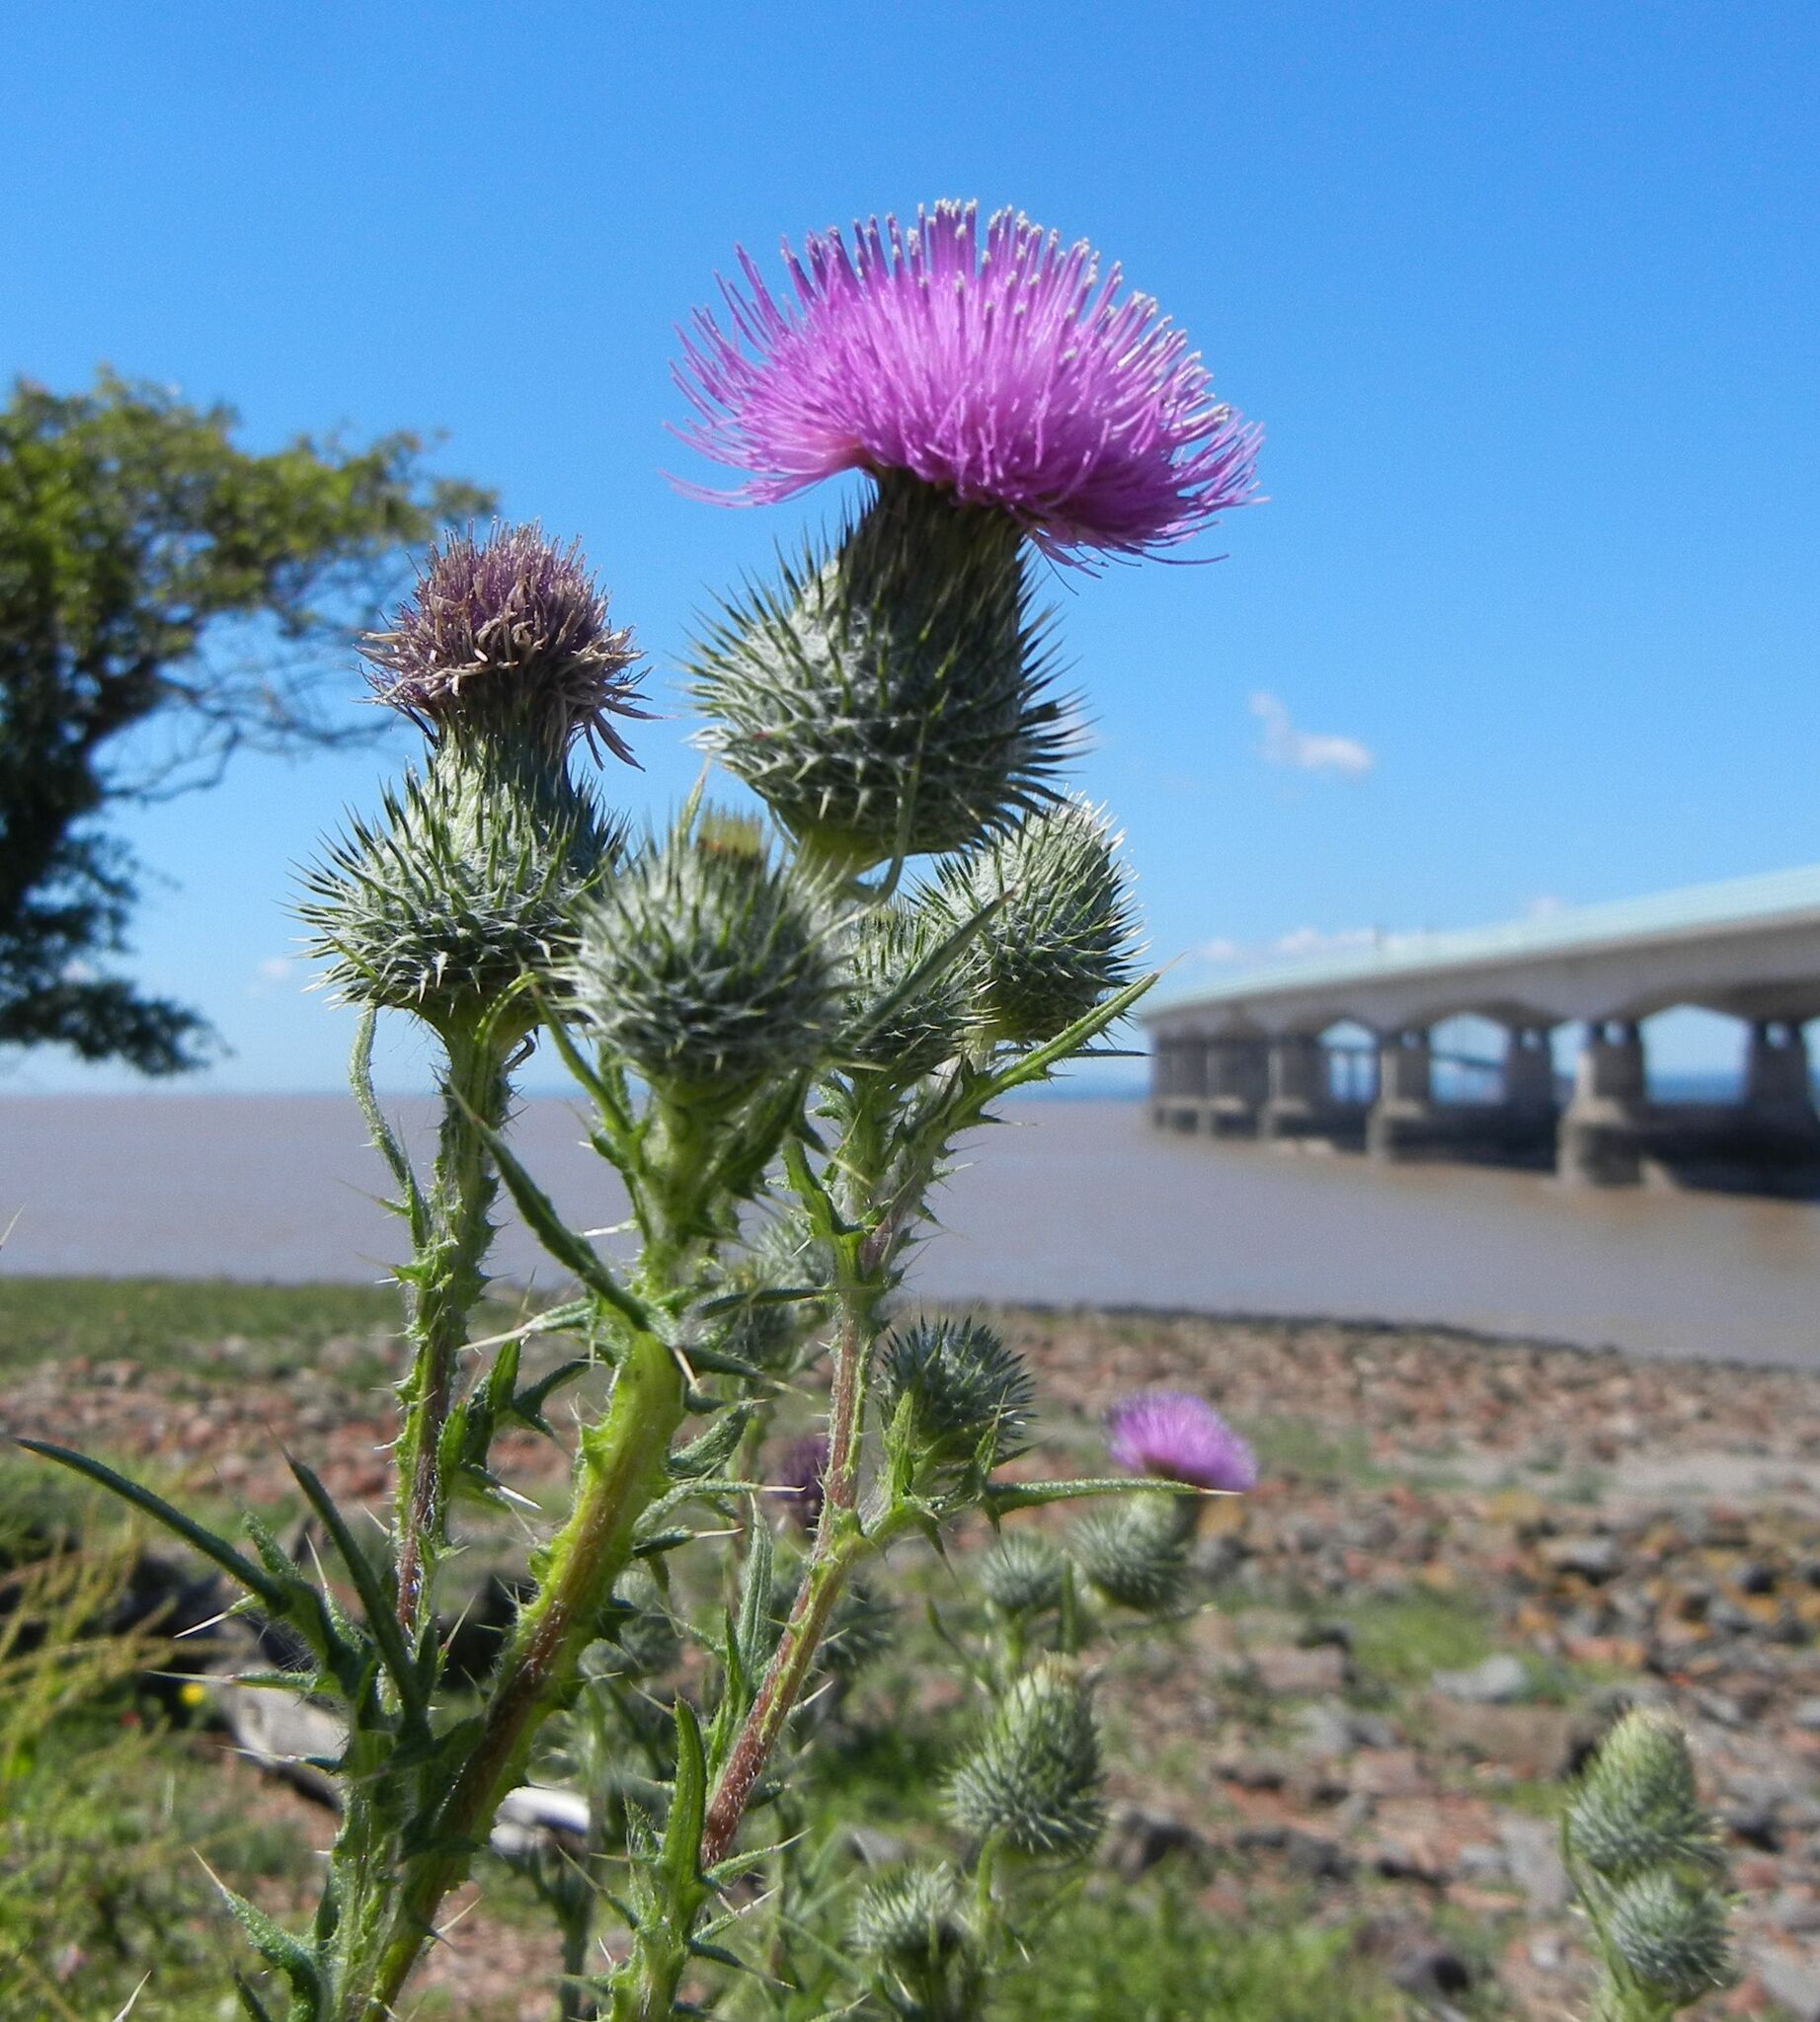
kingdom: Plantae
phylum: Tracheophyta
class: Magnoliopsida
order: Asterales
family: Asteraceae
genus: Cirsium
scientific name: Cirsium vulgare
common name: Bull thistle
